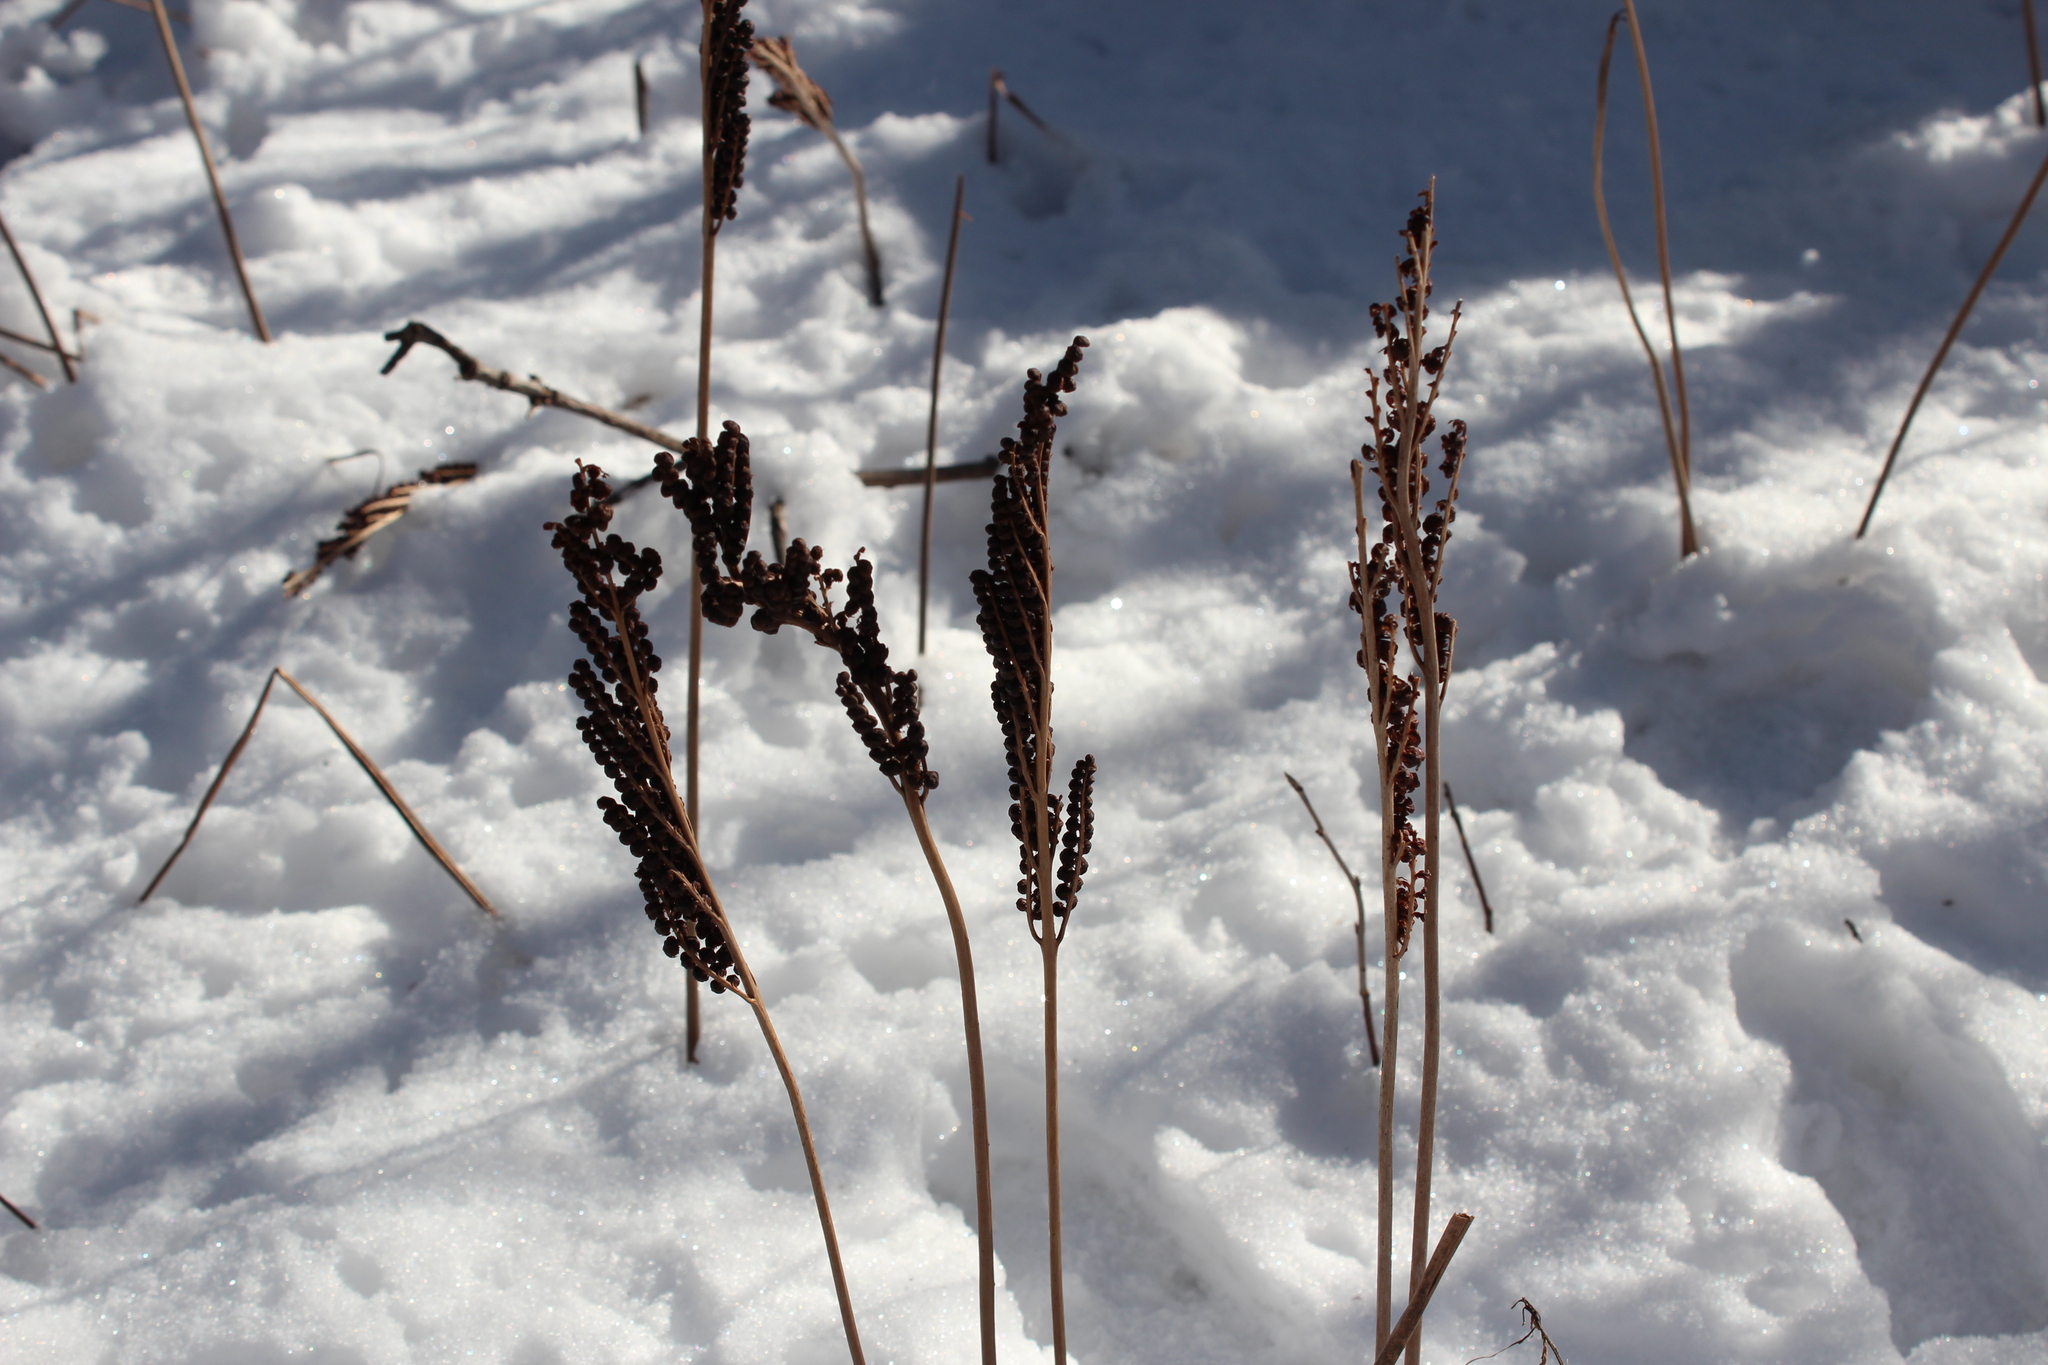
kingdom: Plantae
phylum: Tracheophyta
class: Polypodiopsida
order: Polypodiales
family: Onocleaceae
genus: Onoclea
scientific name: Onoclea sensibilis
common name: Sensitive fern
